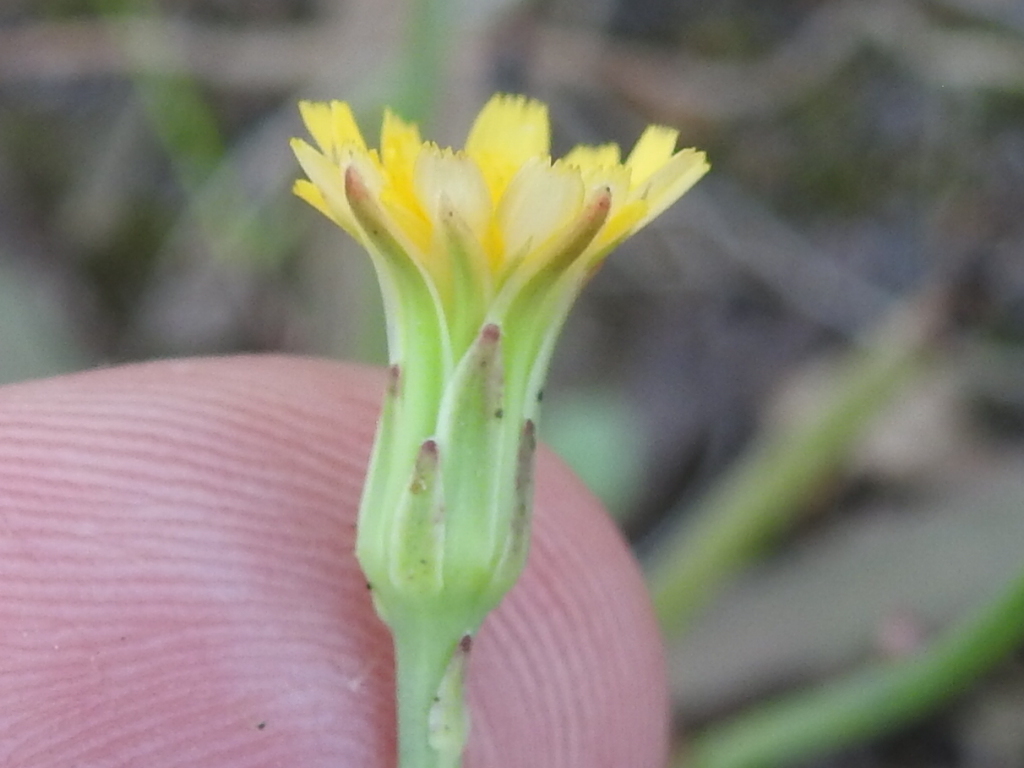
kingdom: Plantae
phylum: Tracheophyta
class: Magnoliopsida
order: Asterales
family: Asteraceae
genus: Hypochaeris
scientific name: Hypochaeris glabra
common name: Smooth catsear
